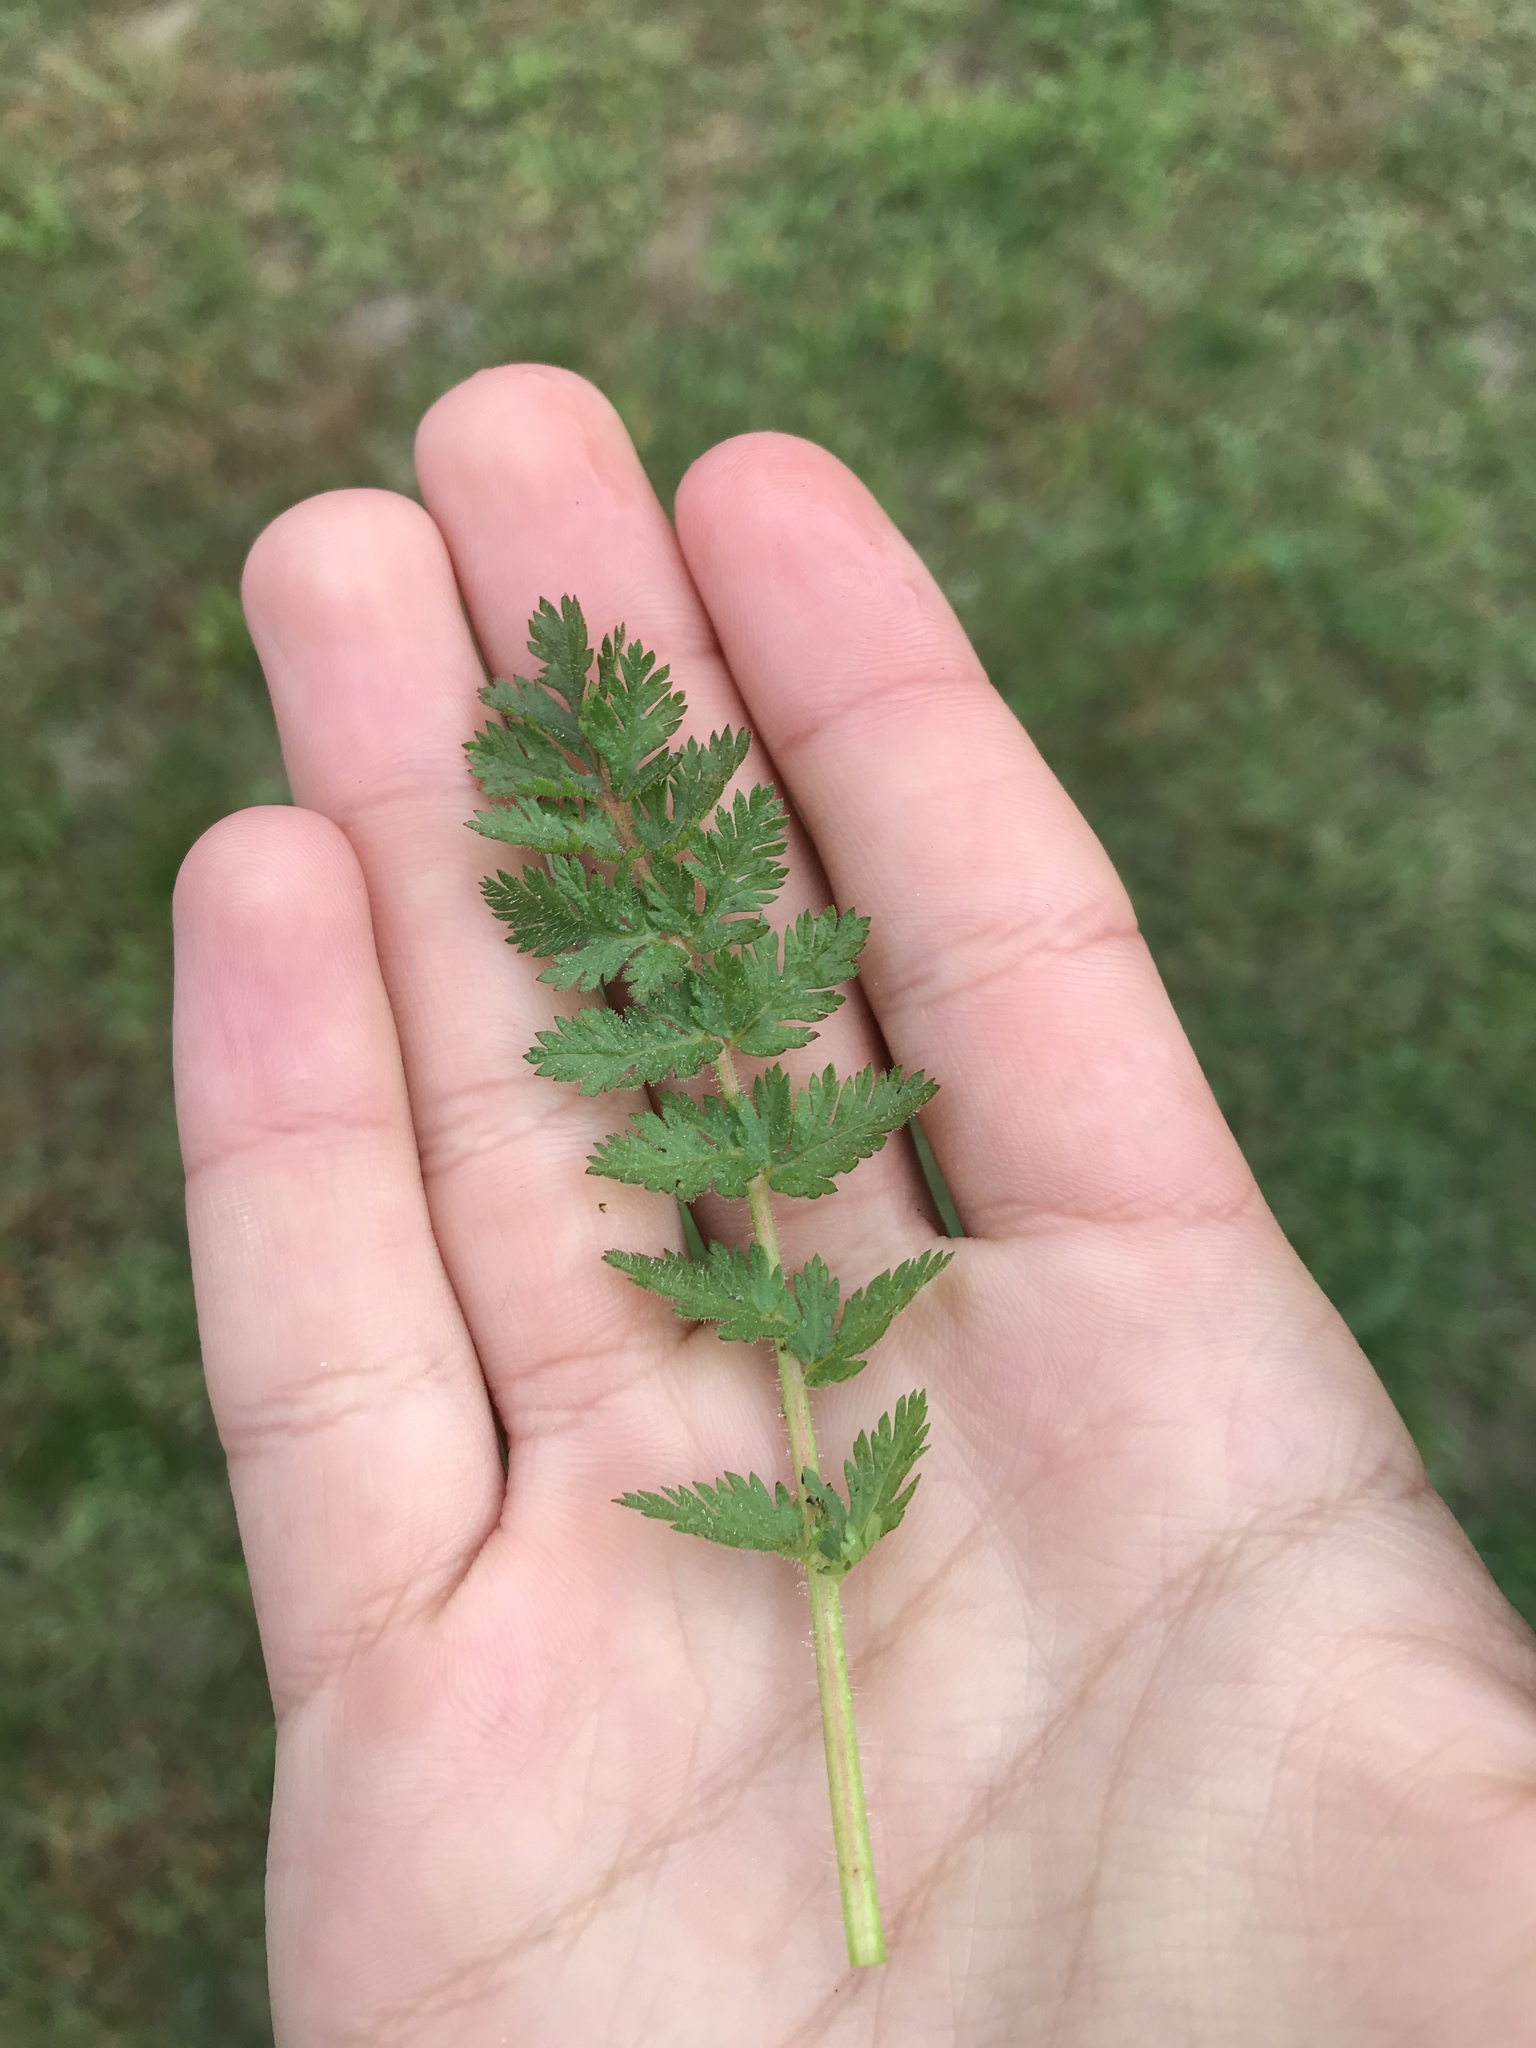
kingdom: Plantae
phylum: Tracheophyta
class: Magnoliopsida
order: Geraniales
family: Geraniaceae
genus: Erodium
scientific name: Erodium cicutarium
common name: Common stork's-bill
